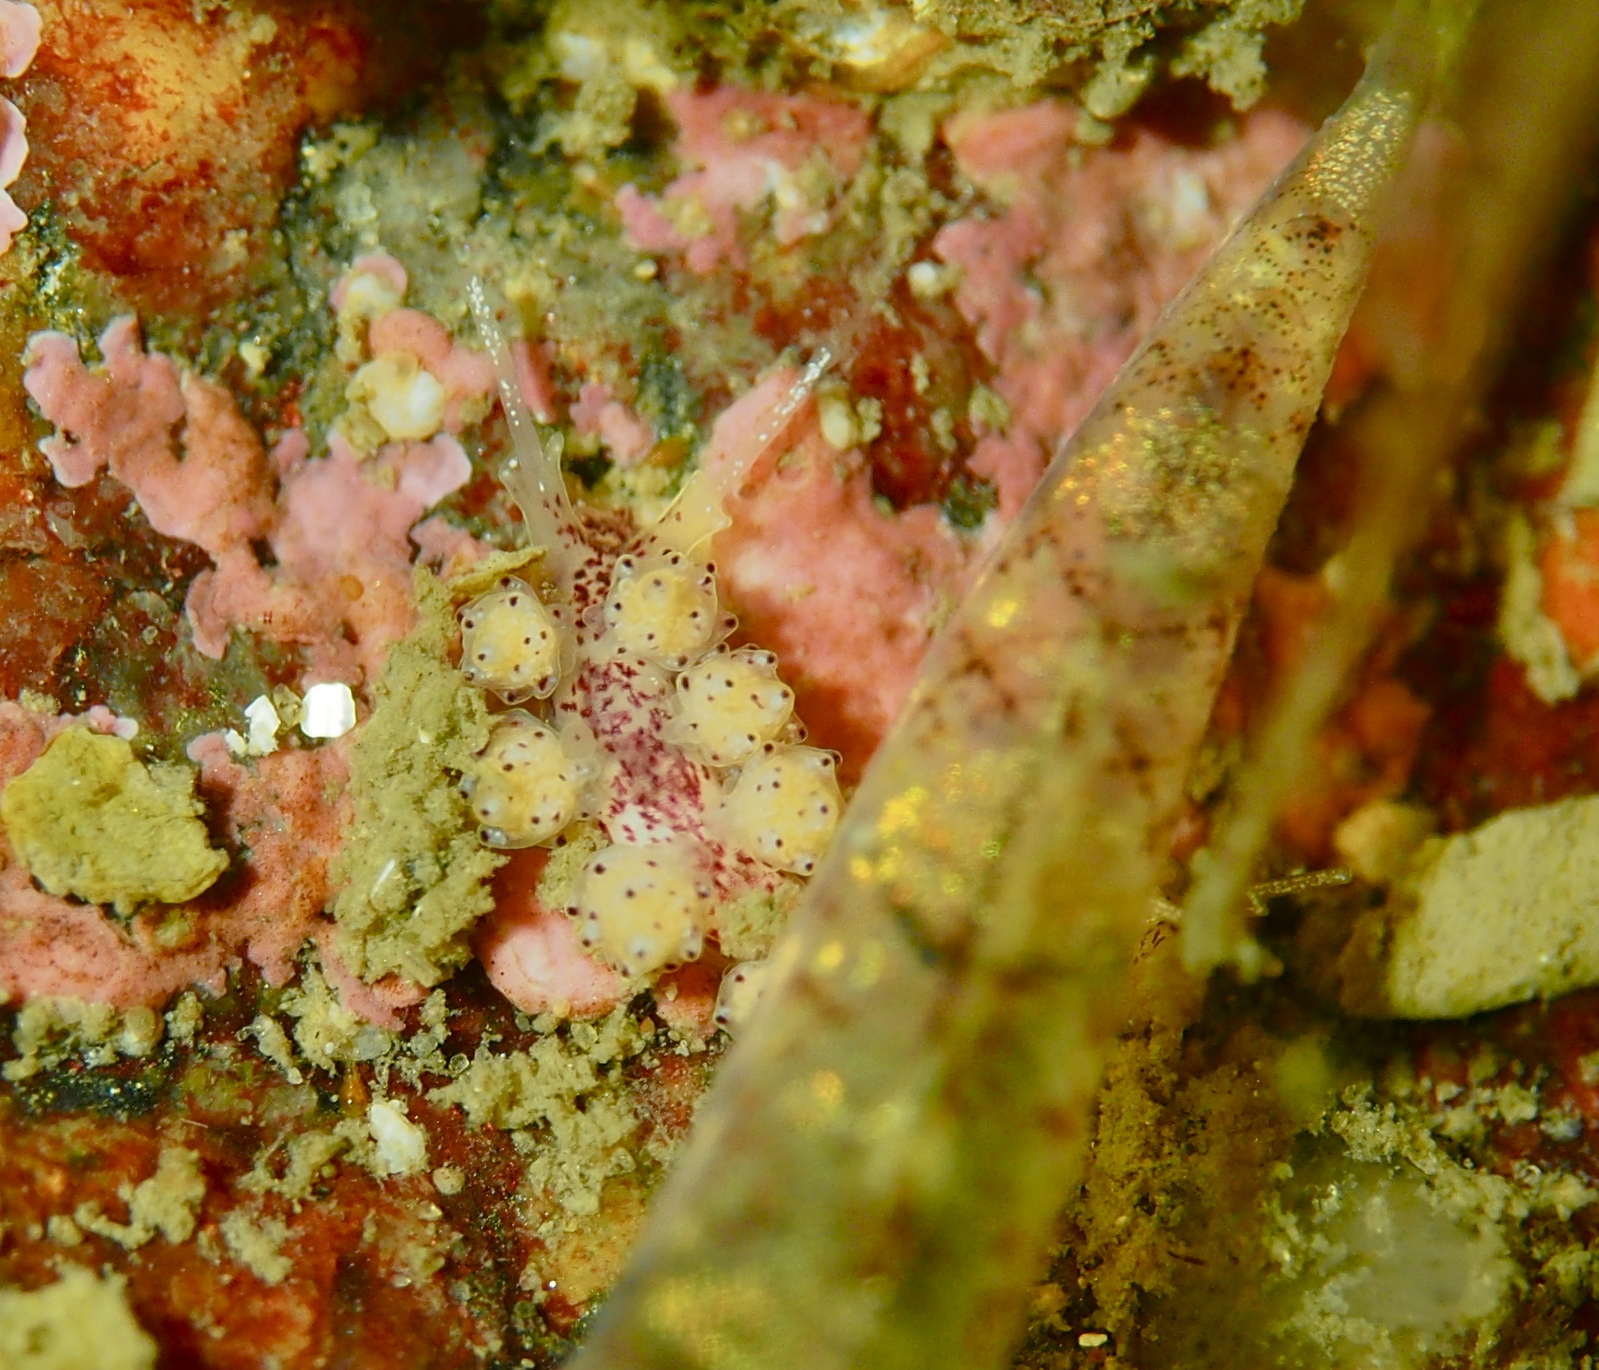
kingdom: Animalia
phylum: Mollusca
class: Gastropoda
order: Nudibranchia
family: Dotidae
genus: Doto
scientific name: Doto dunnei
